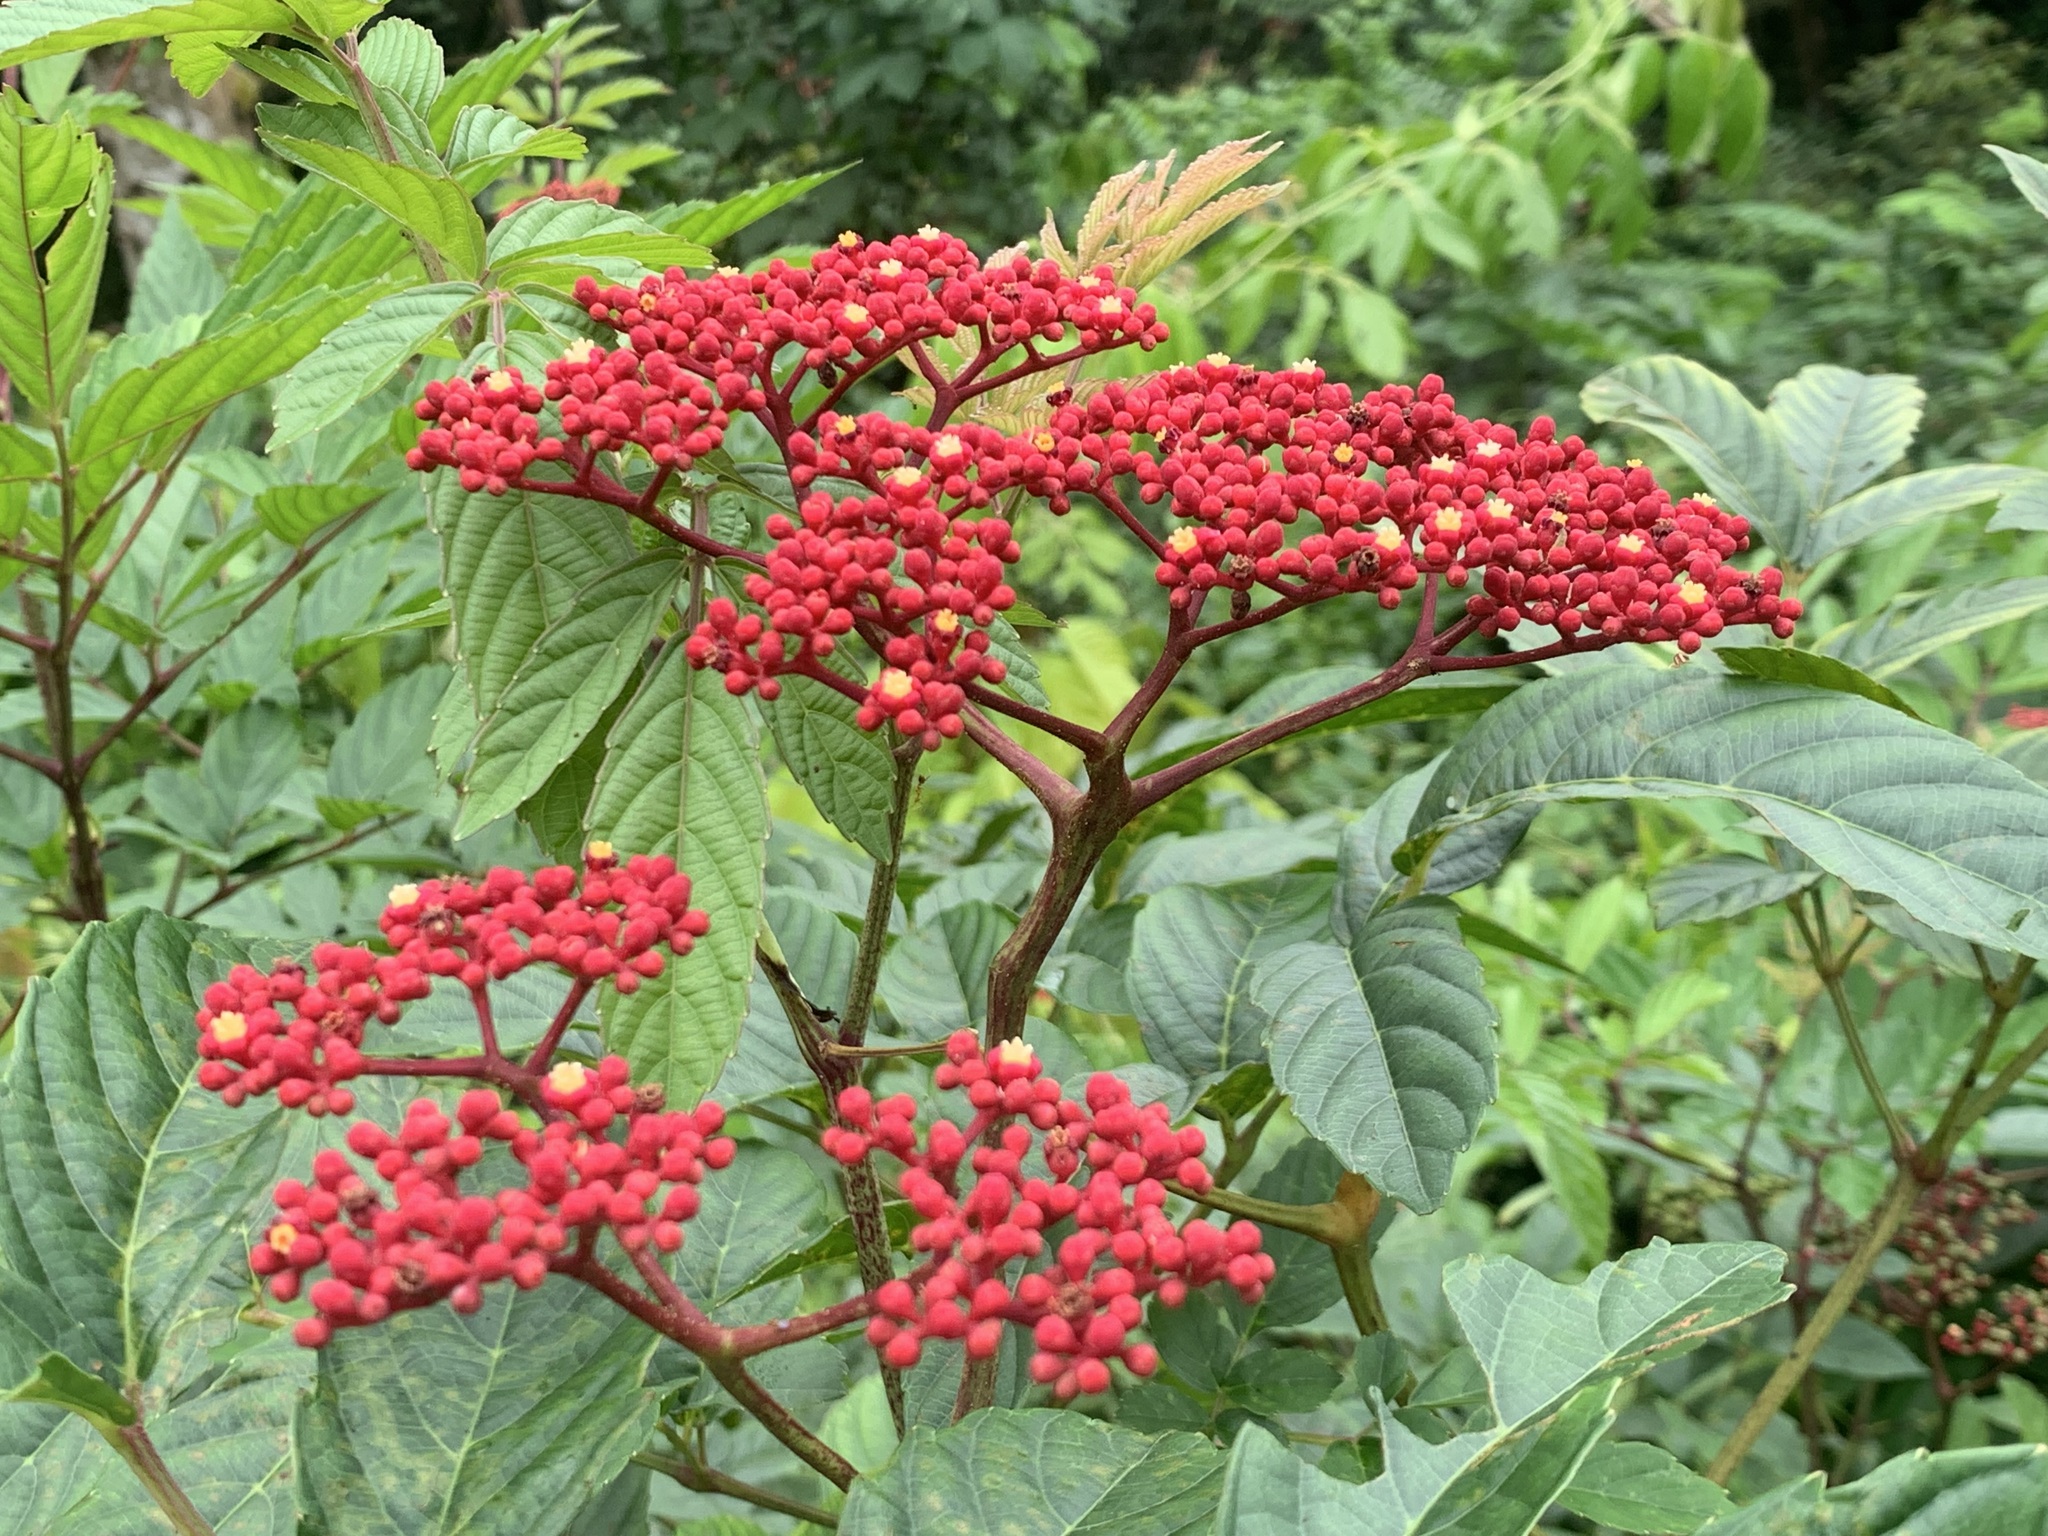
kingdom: Plantae
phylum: Tracheophyta
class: Magnoliopsida
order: Vitales
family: Vitaceae
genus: Leea
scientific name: Leea rubra
